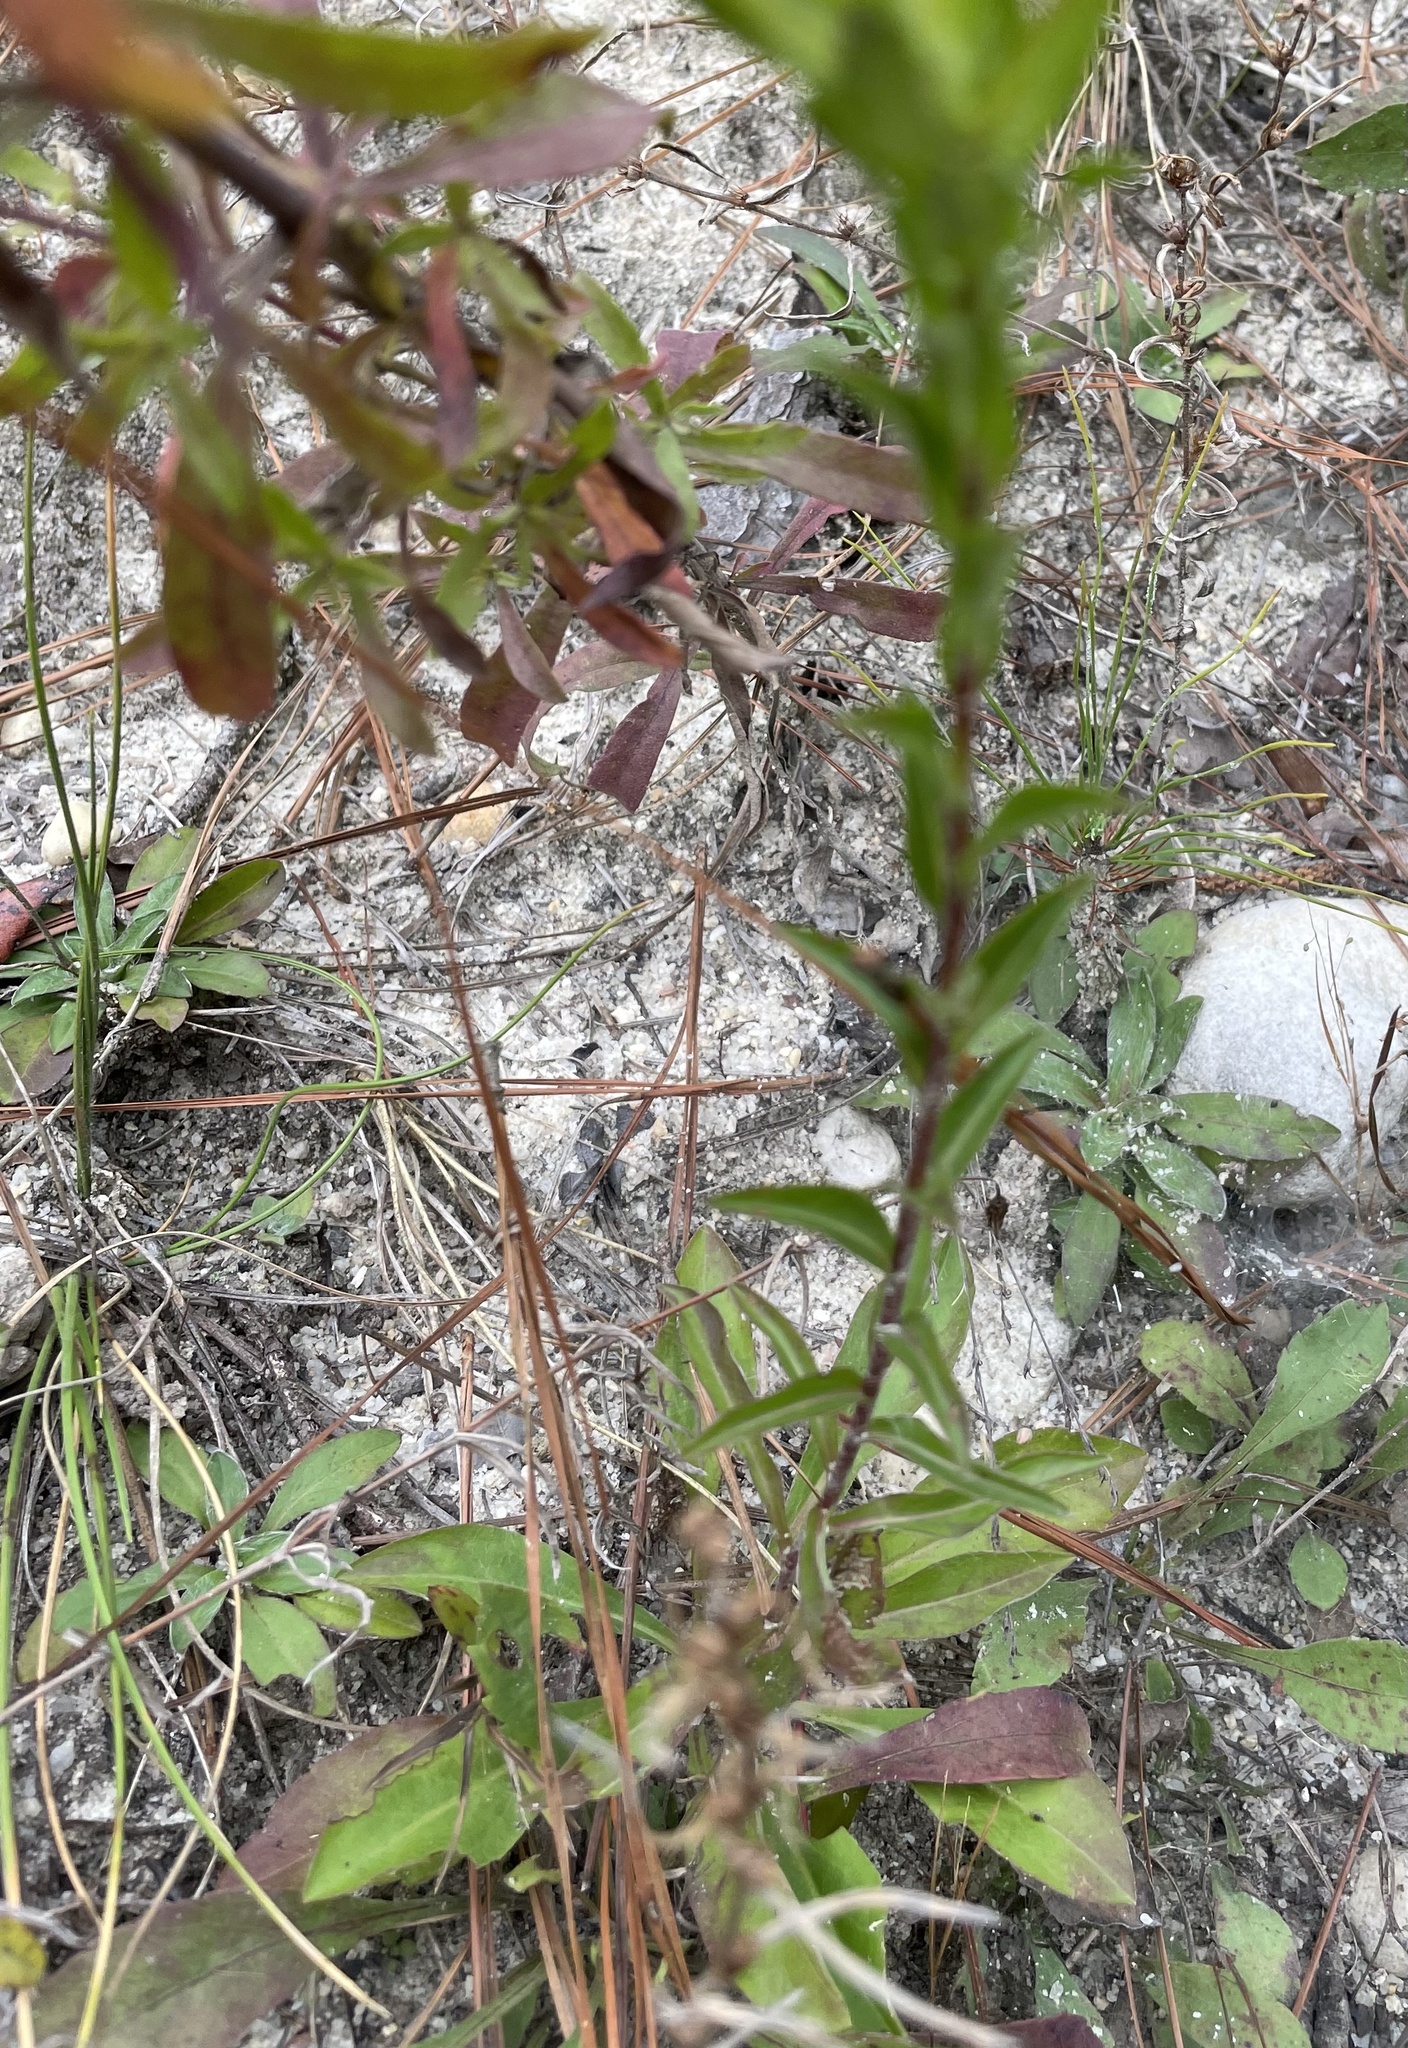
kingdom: Plantae
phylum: Tracheophyta
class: Magnoliopsida
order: Asterales
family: Asteraceae
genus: Chrysopsis
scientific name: Chrysopsis mariana
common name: Maryland golden-aster
